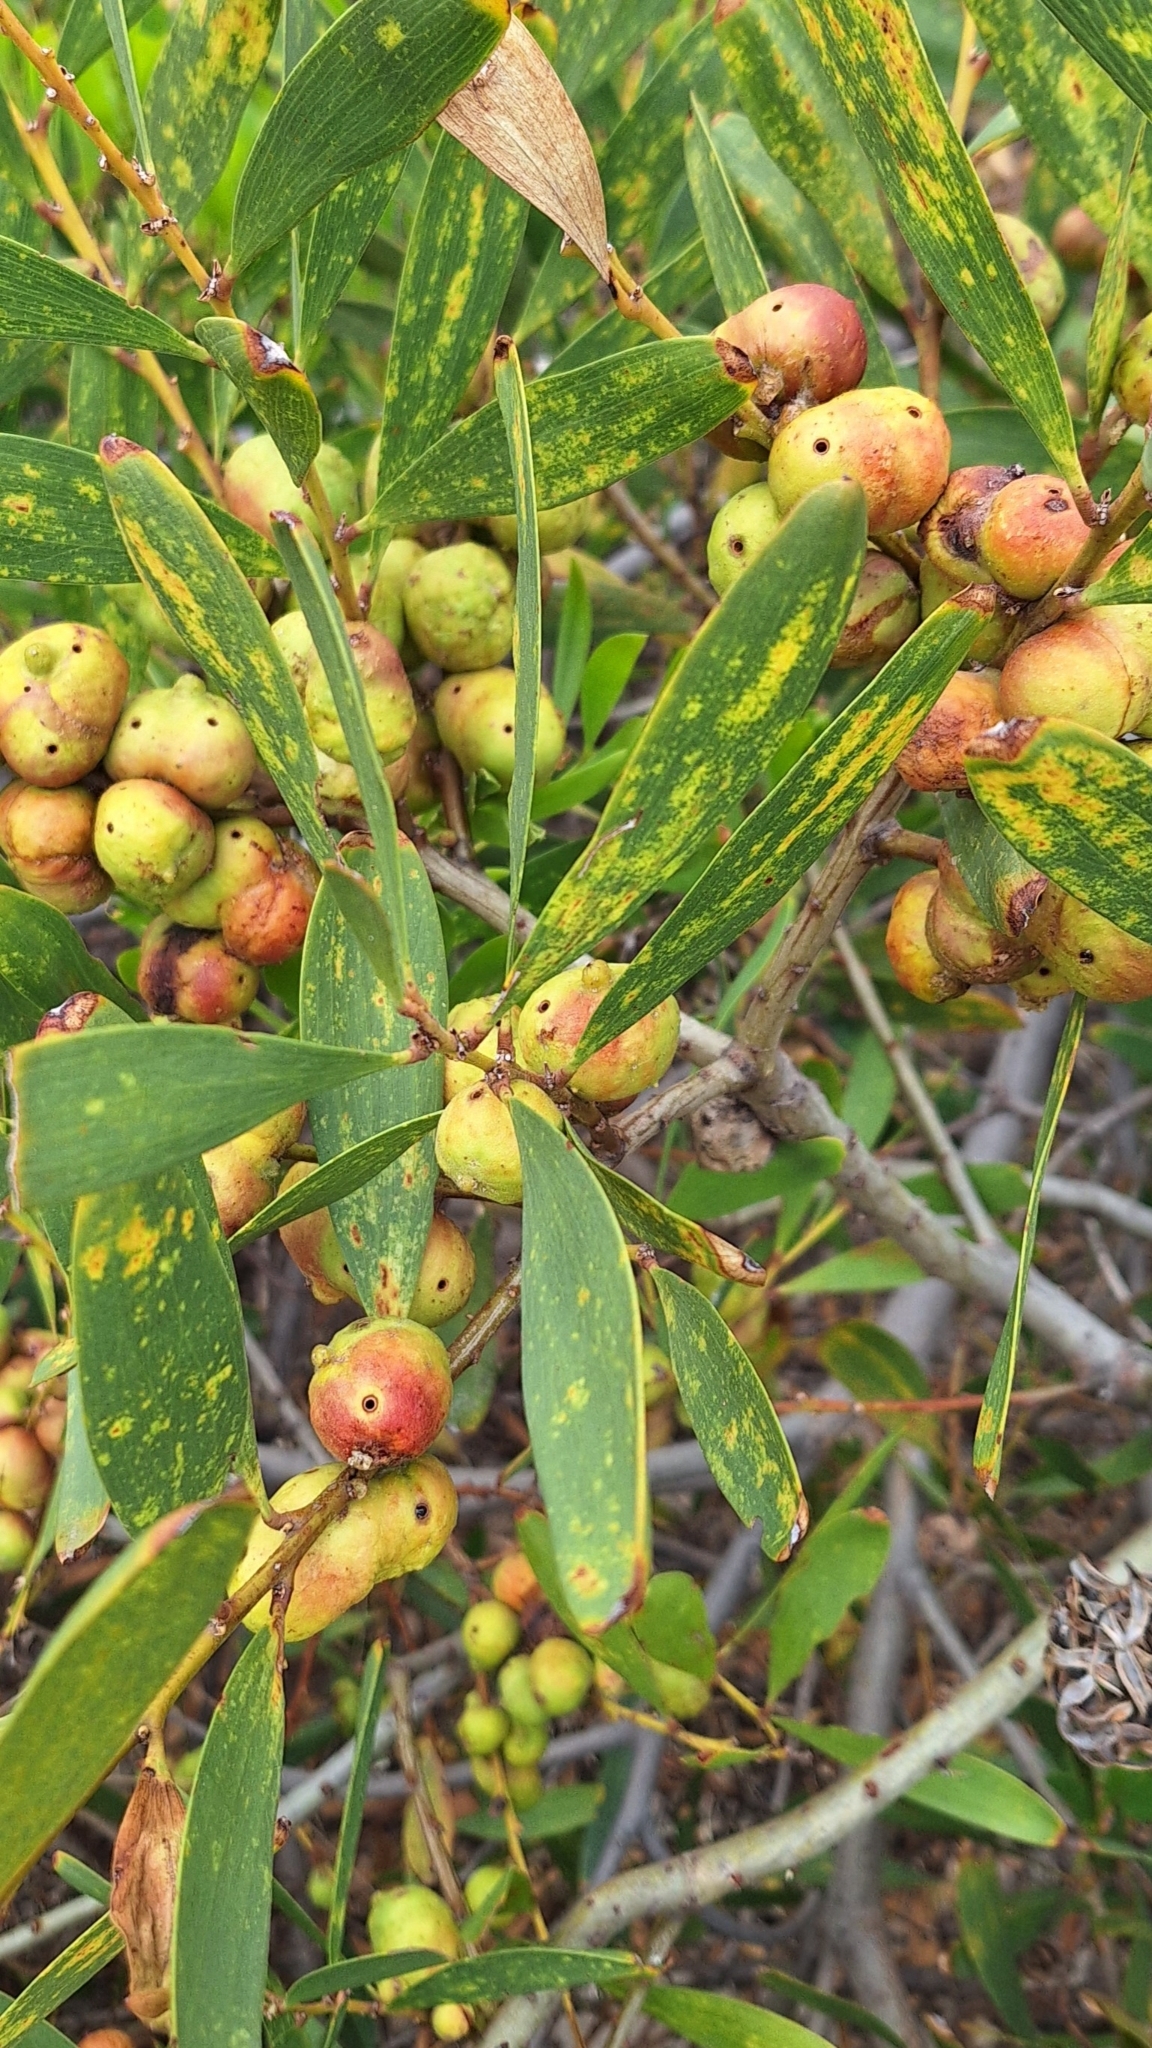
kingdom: Animalia
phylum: Arthropoda
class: Insecta
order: Hymenoptera
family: Pteromalidae
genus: Trichilogaster
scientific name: Trichilogaster acaciaelongifoliae
